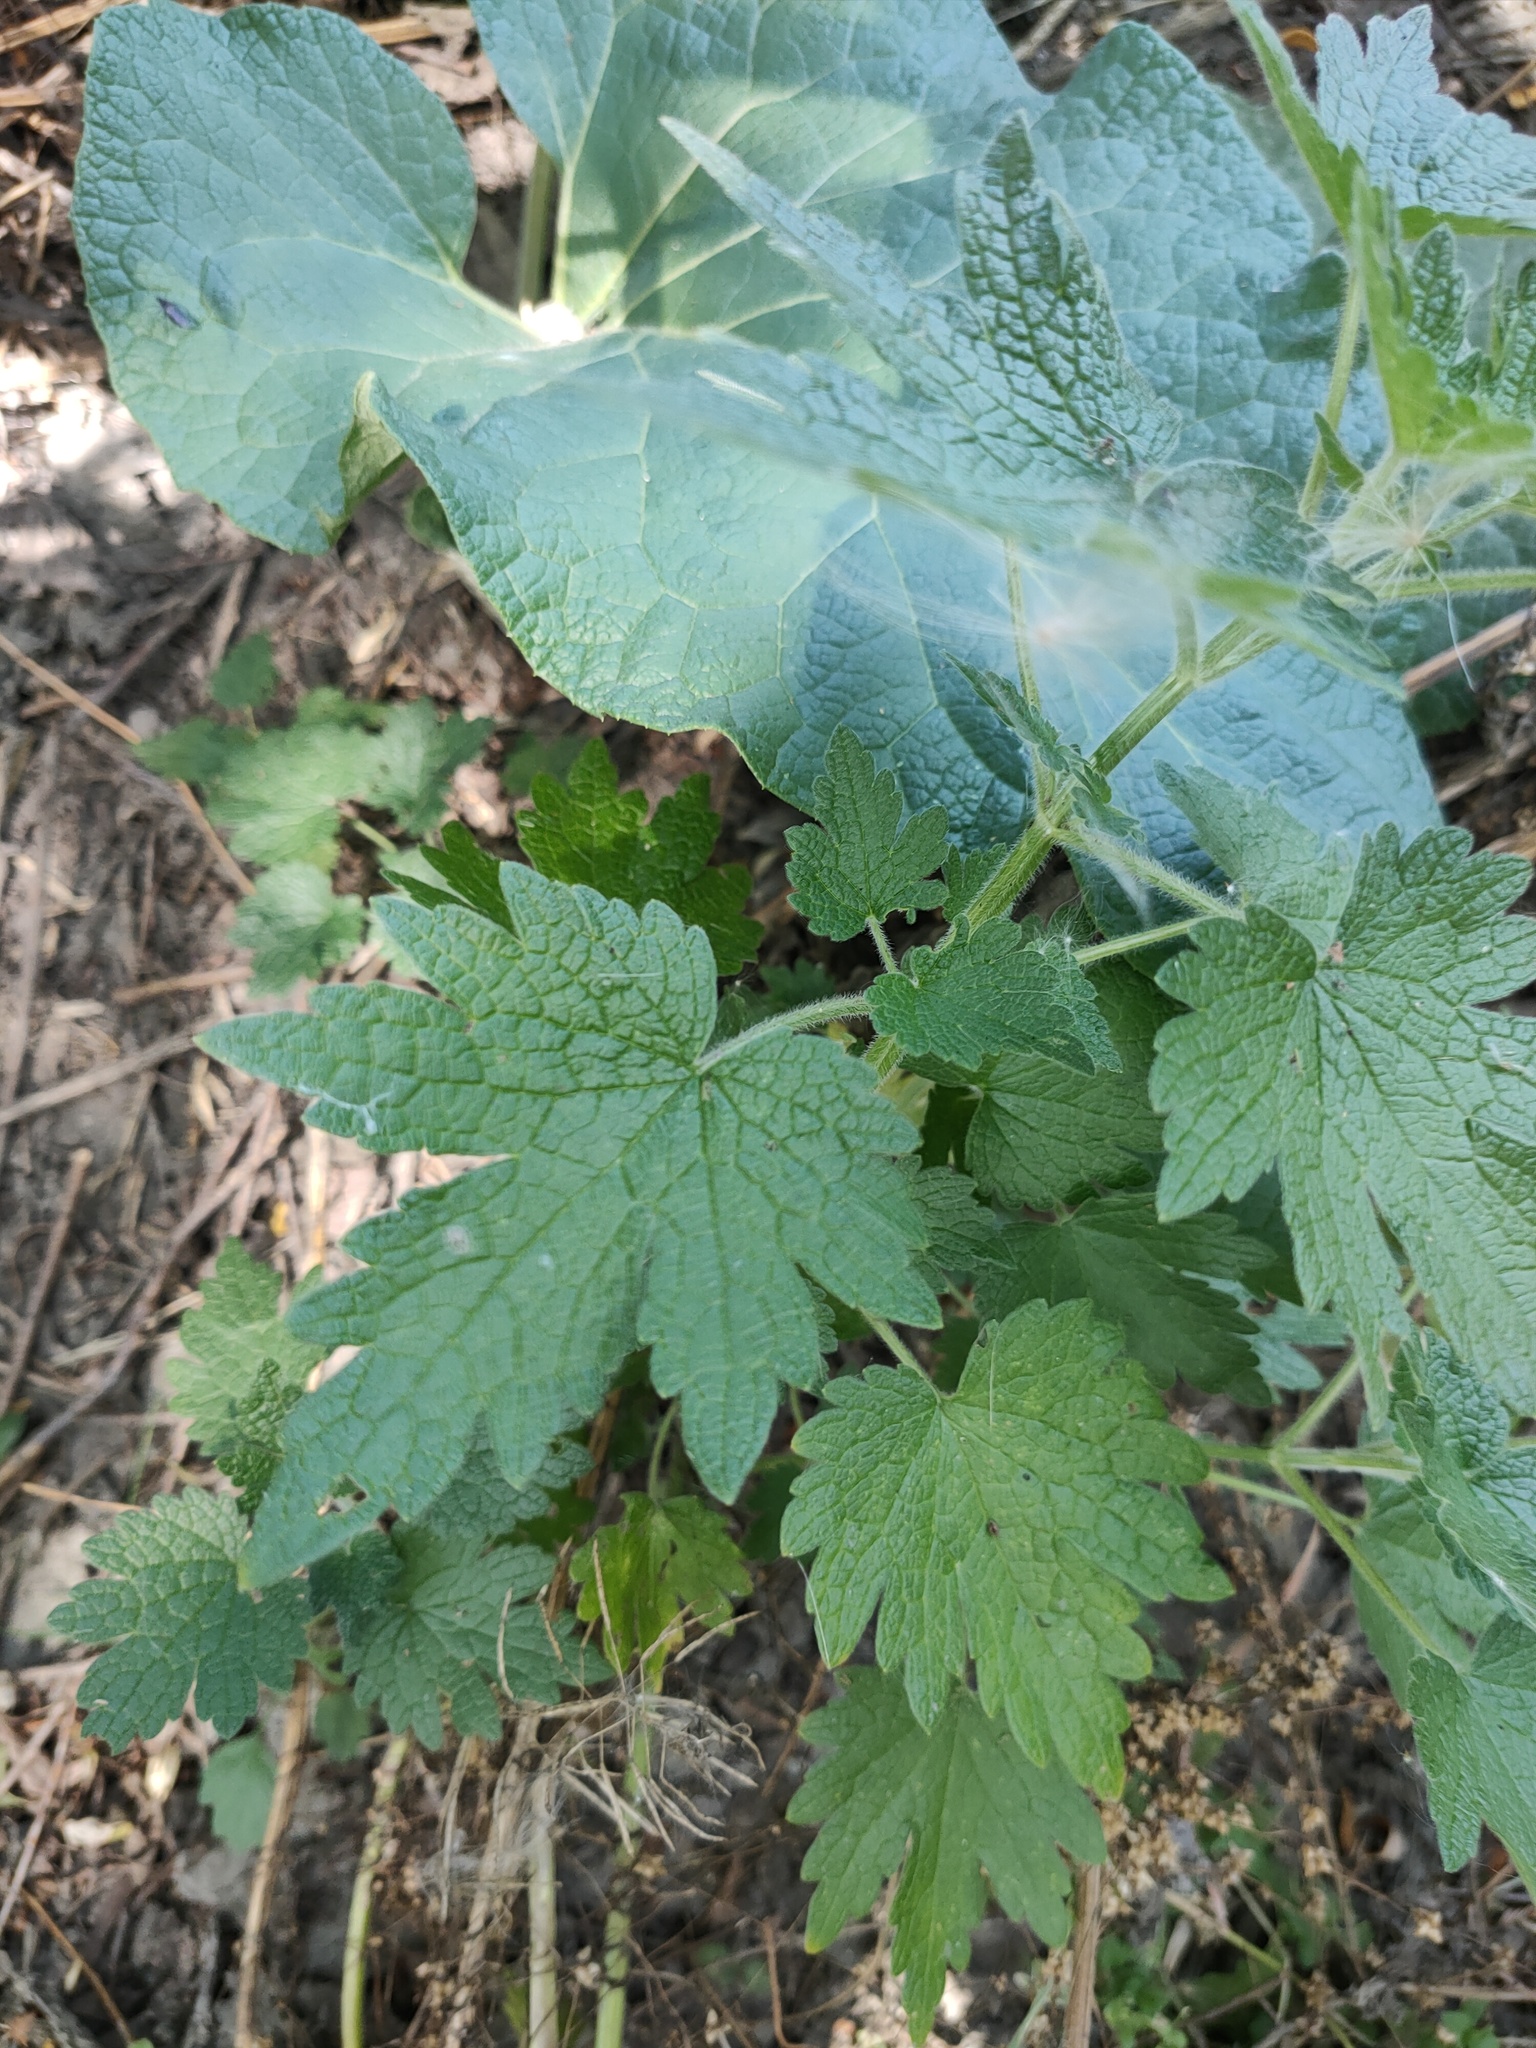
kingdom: Plantae
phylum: Tracheophyta
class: Magnoliopsida
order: Lamiales
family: Lamiaceae
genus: Leonurus
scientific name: Leonurus quinquelobatus
